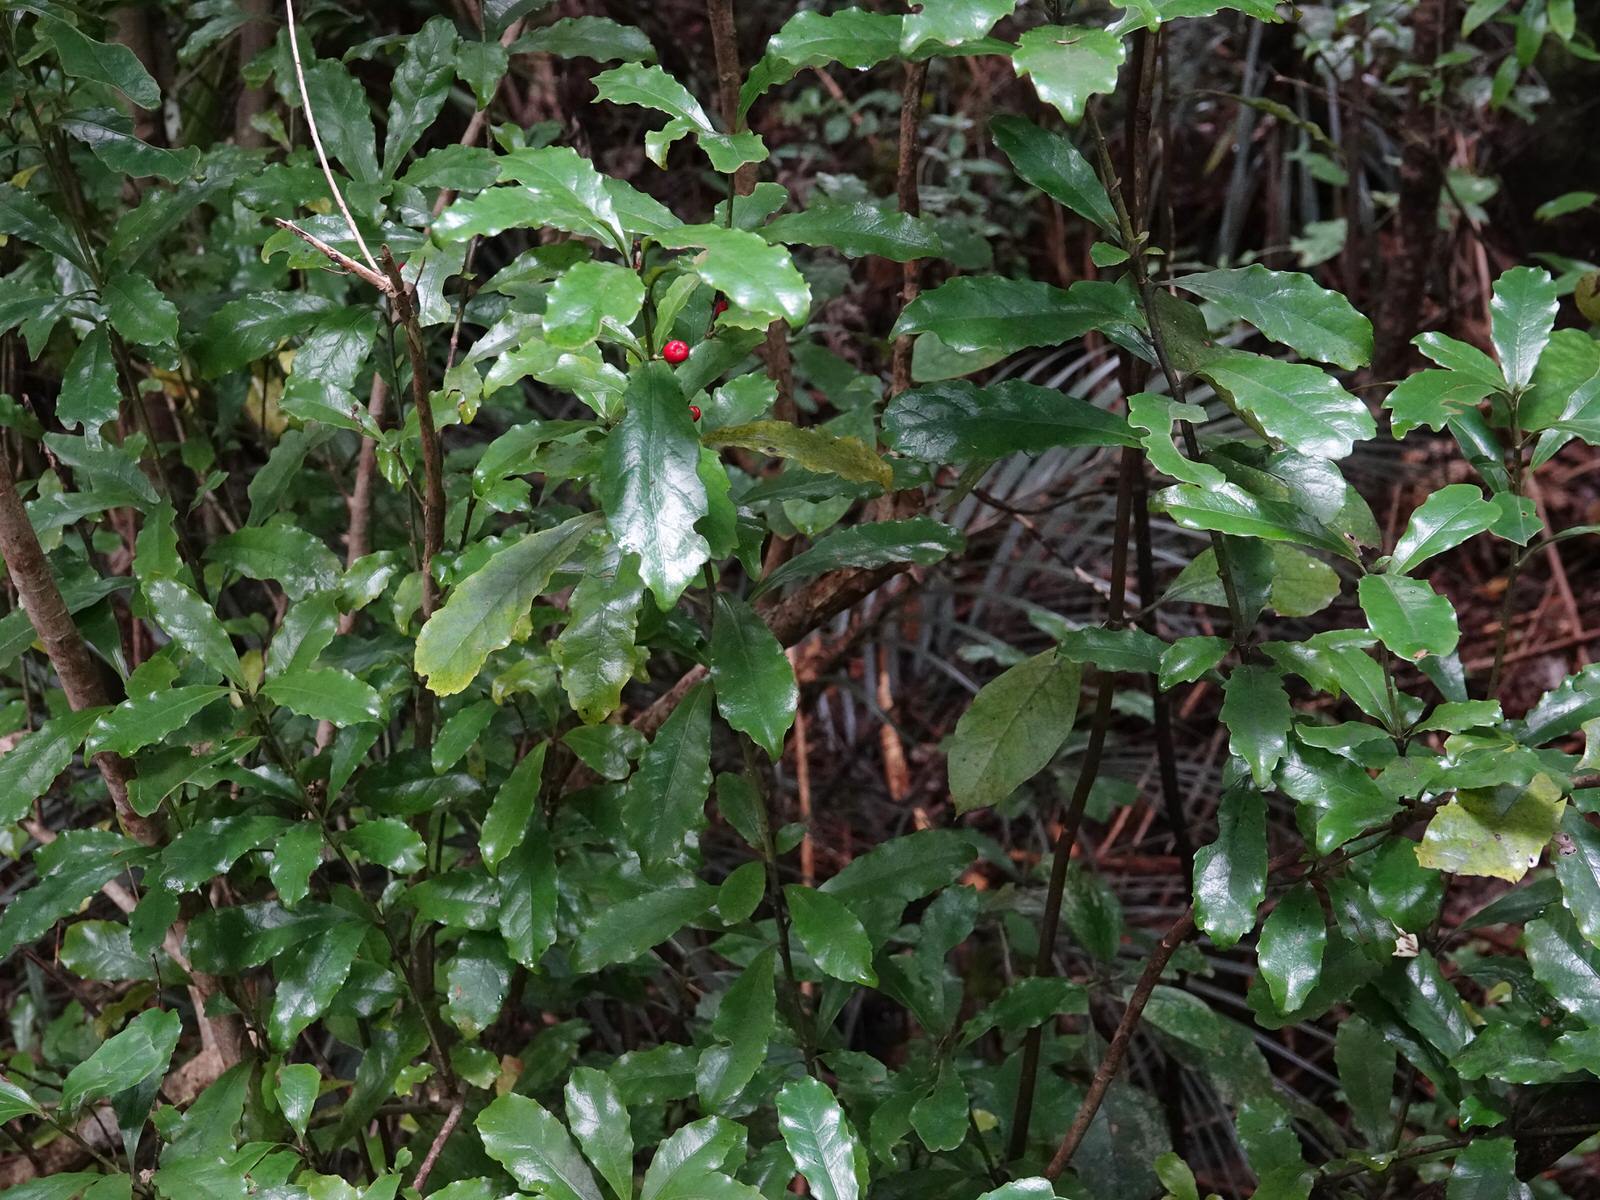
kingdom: Plantae
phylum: Tracheophyta
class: Magnoliopsida
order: Asterales
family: Alseuosmiaceae
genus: Alseuosmia
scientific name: Alseuosmia macrophylla
